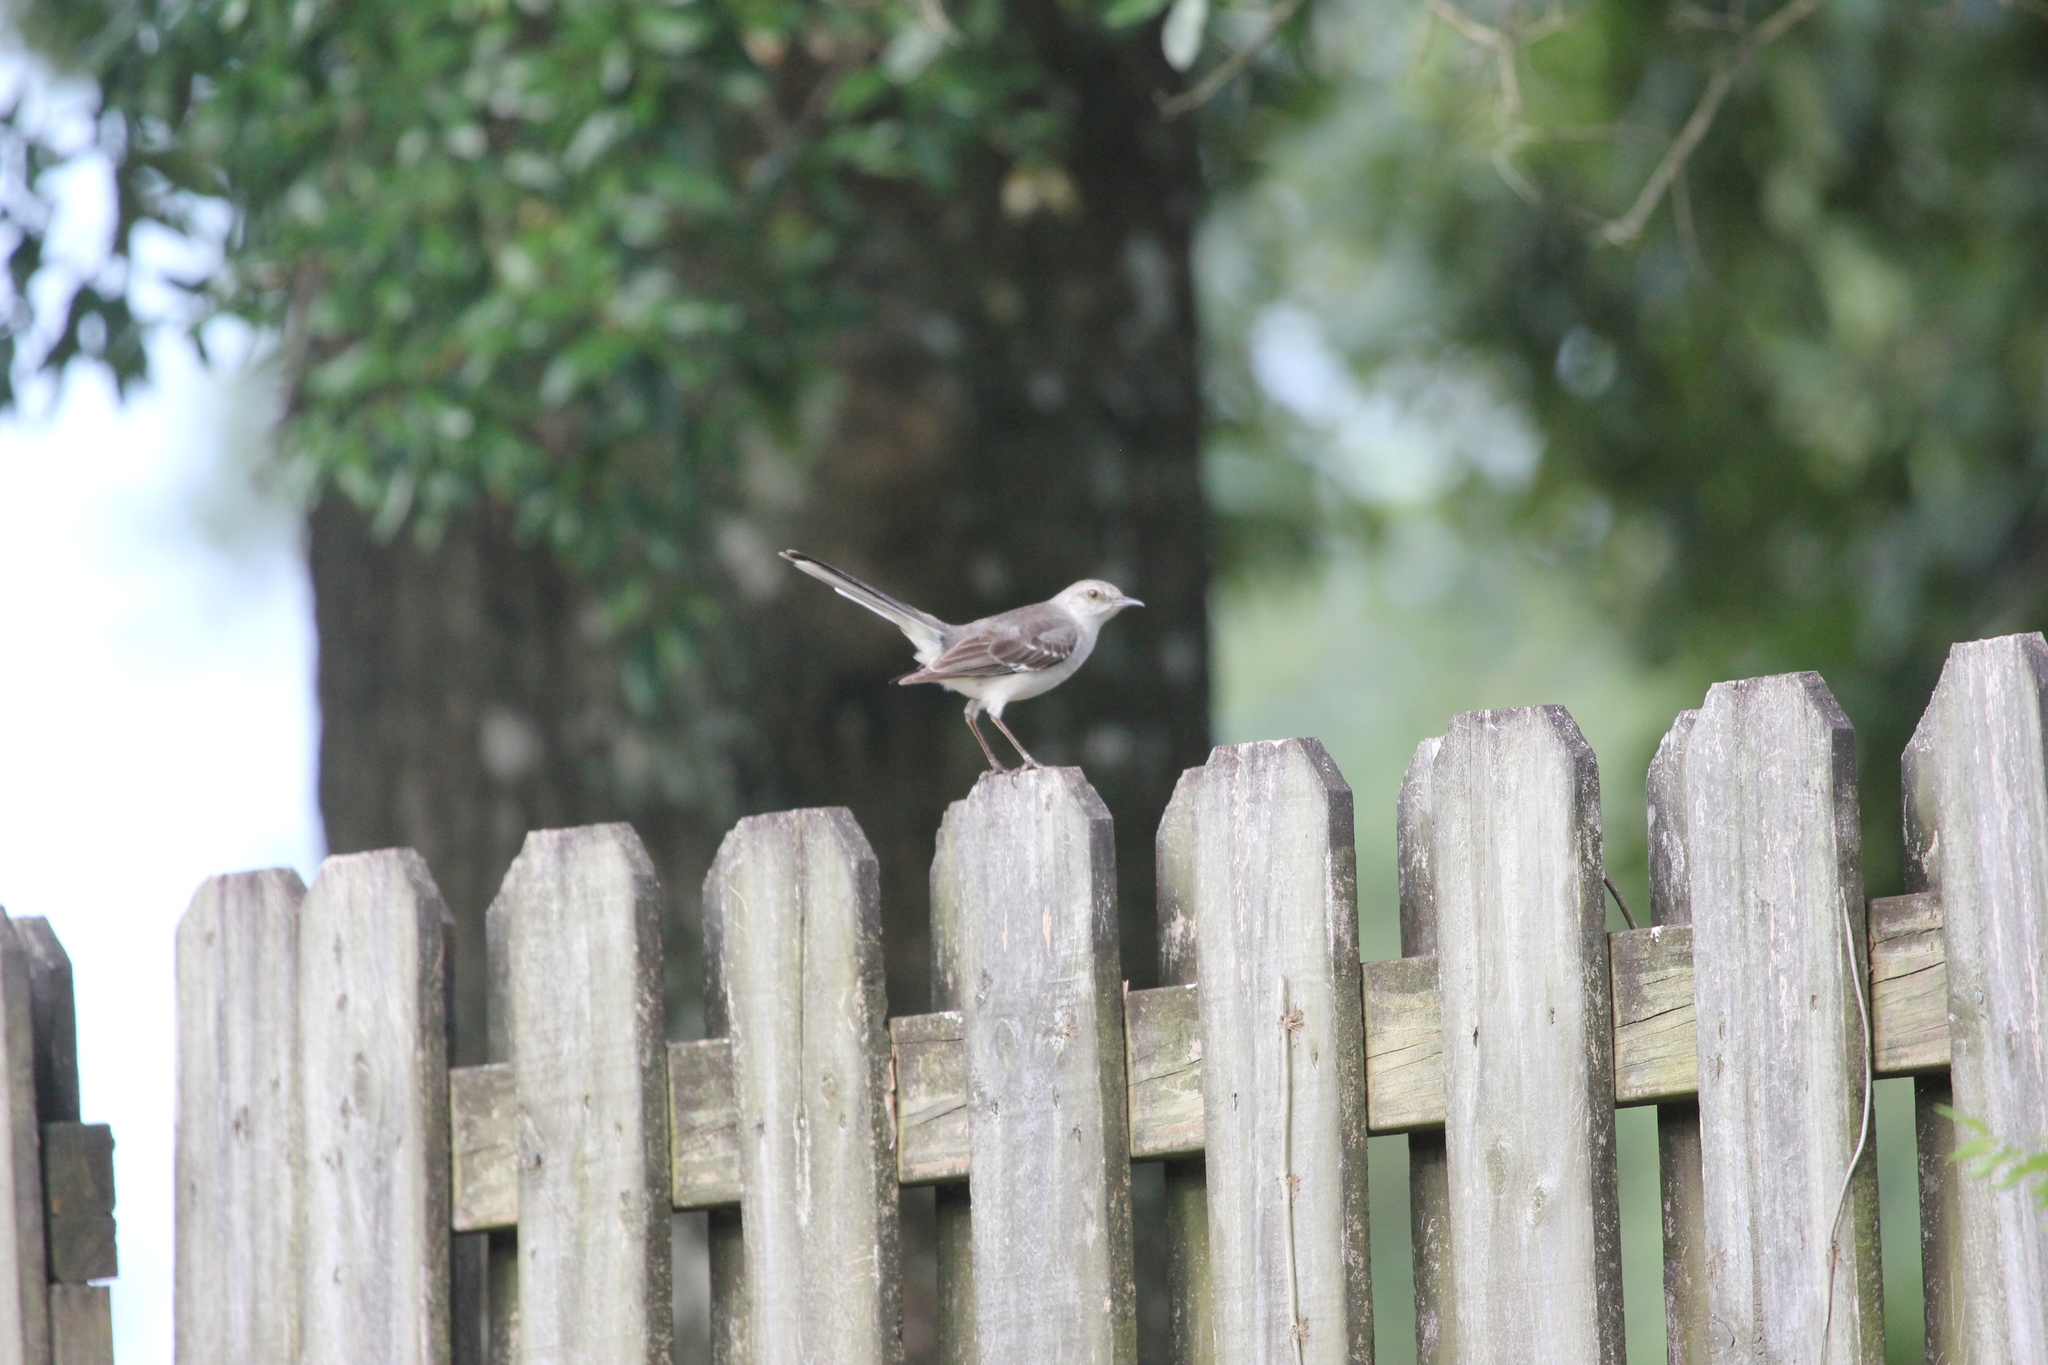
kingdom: Animalia
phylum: Chordata
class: Aves
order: Passeriformes
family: Mimidae
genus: Mimus
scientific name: Mimus polyglottos
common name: Northern mockingbird
